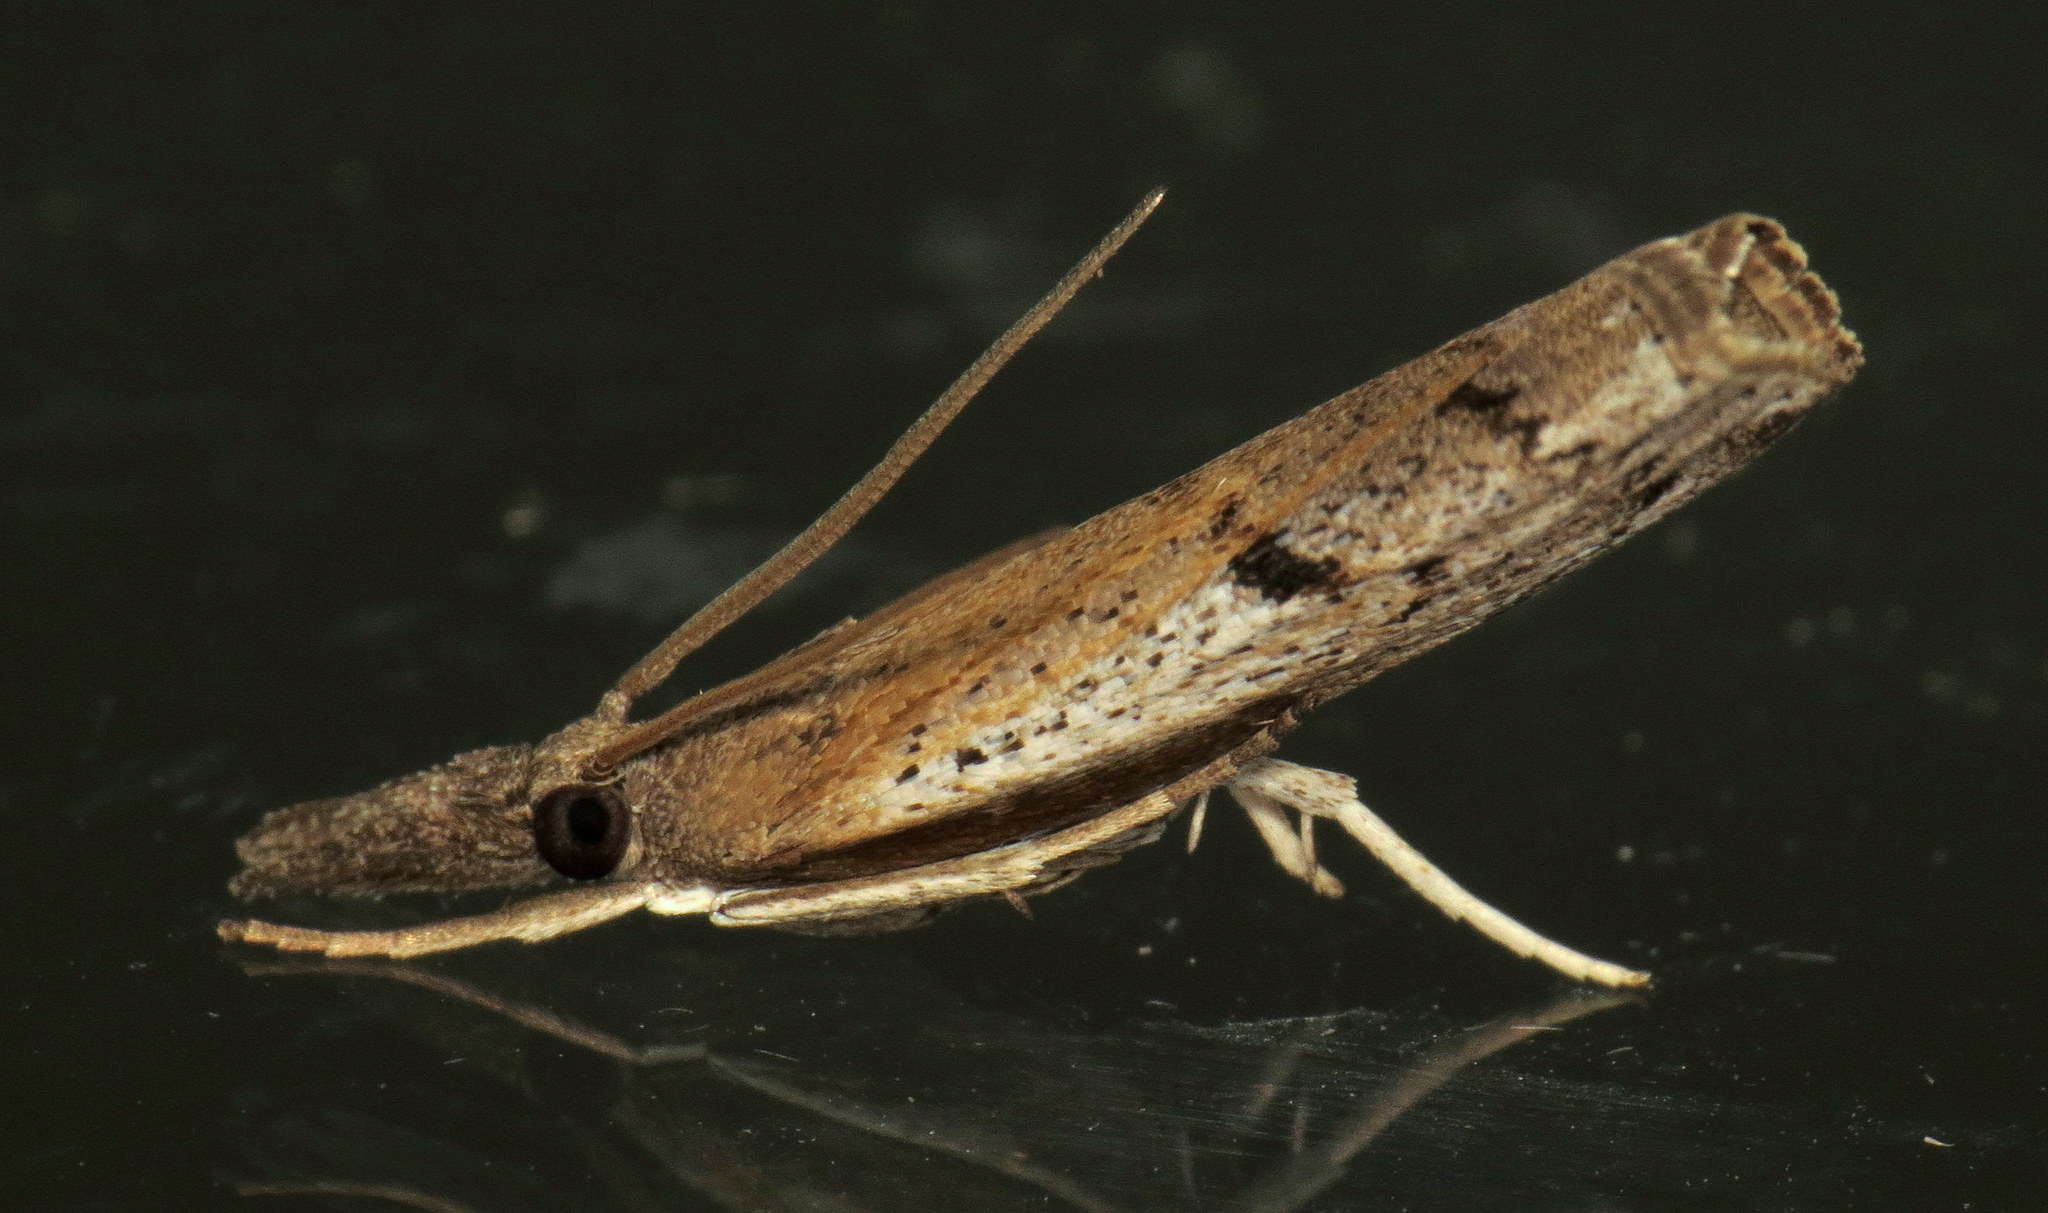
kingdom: Animalia
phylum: Arthropoda
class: Insecta
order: Lepidoptera
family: Crambidae
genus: Fissicrambus
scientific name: Fissicrambus mutabilis
